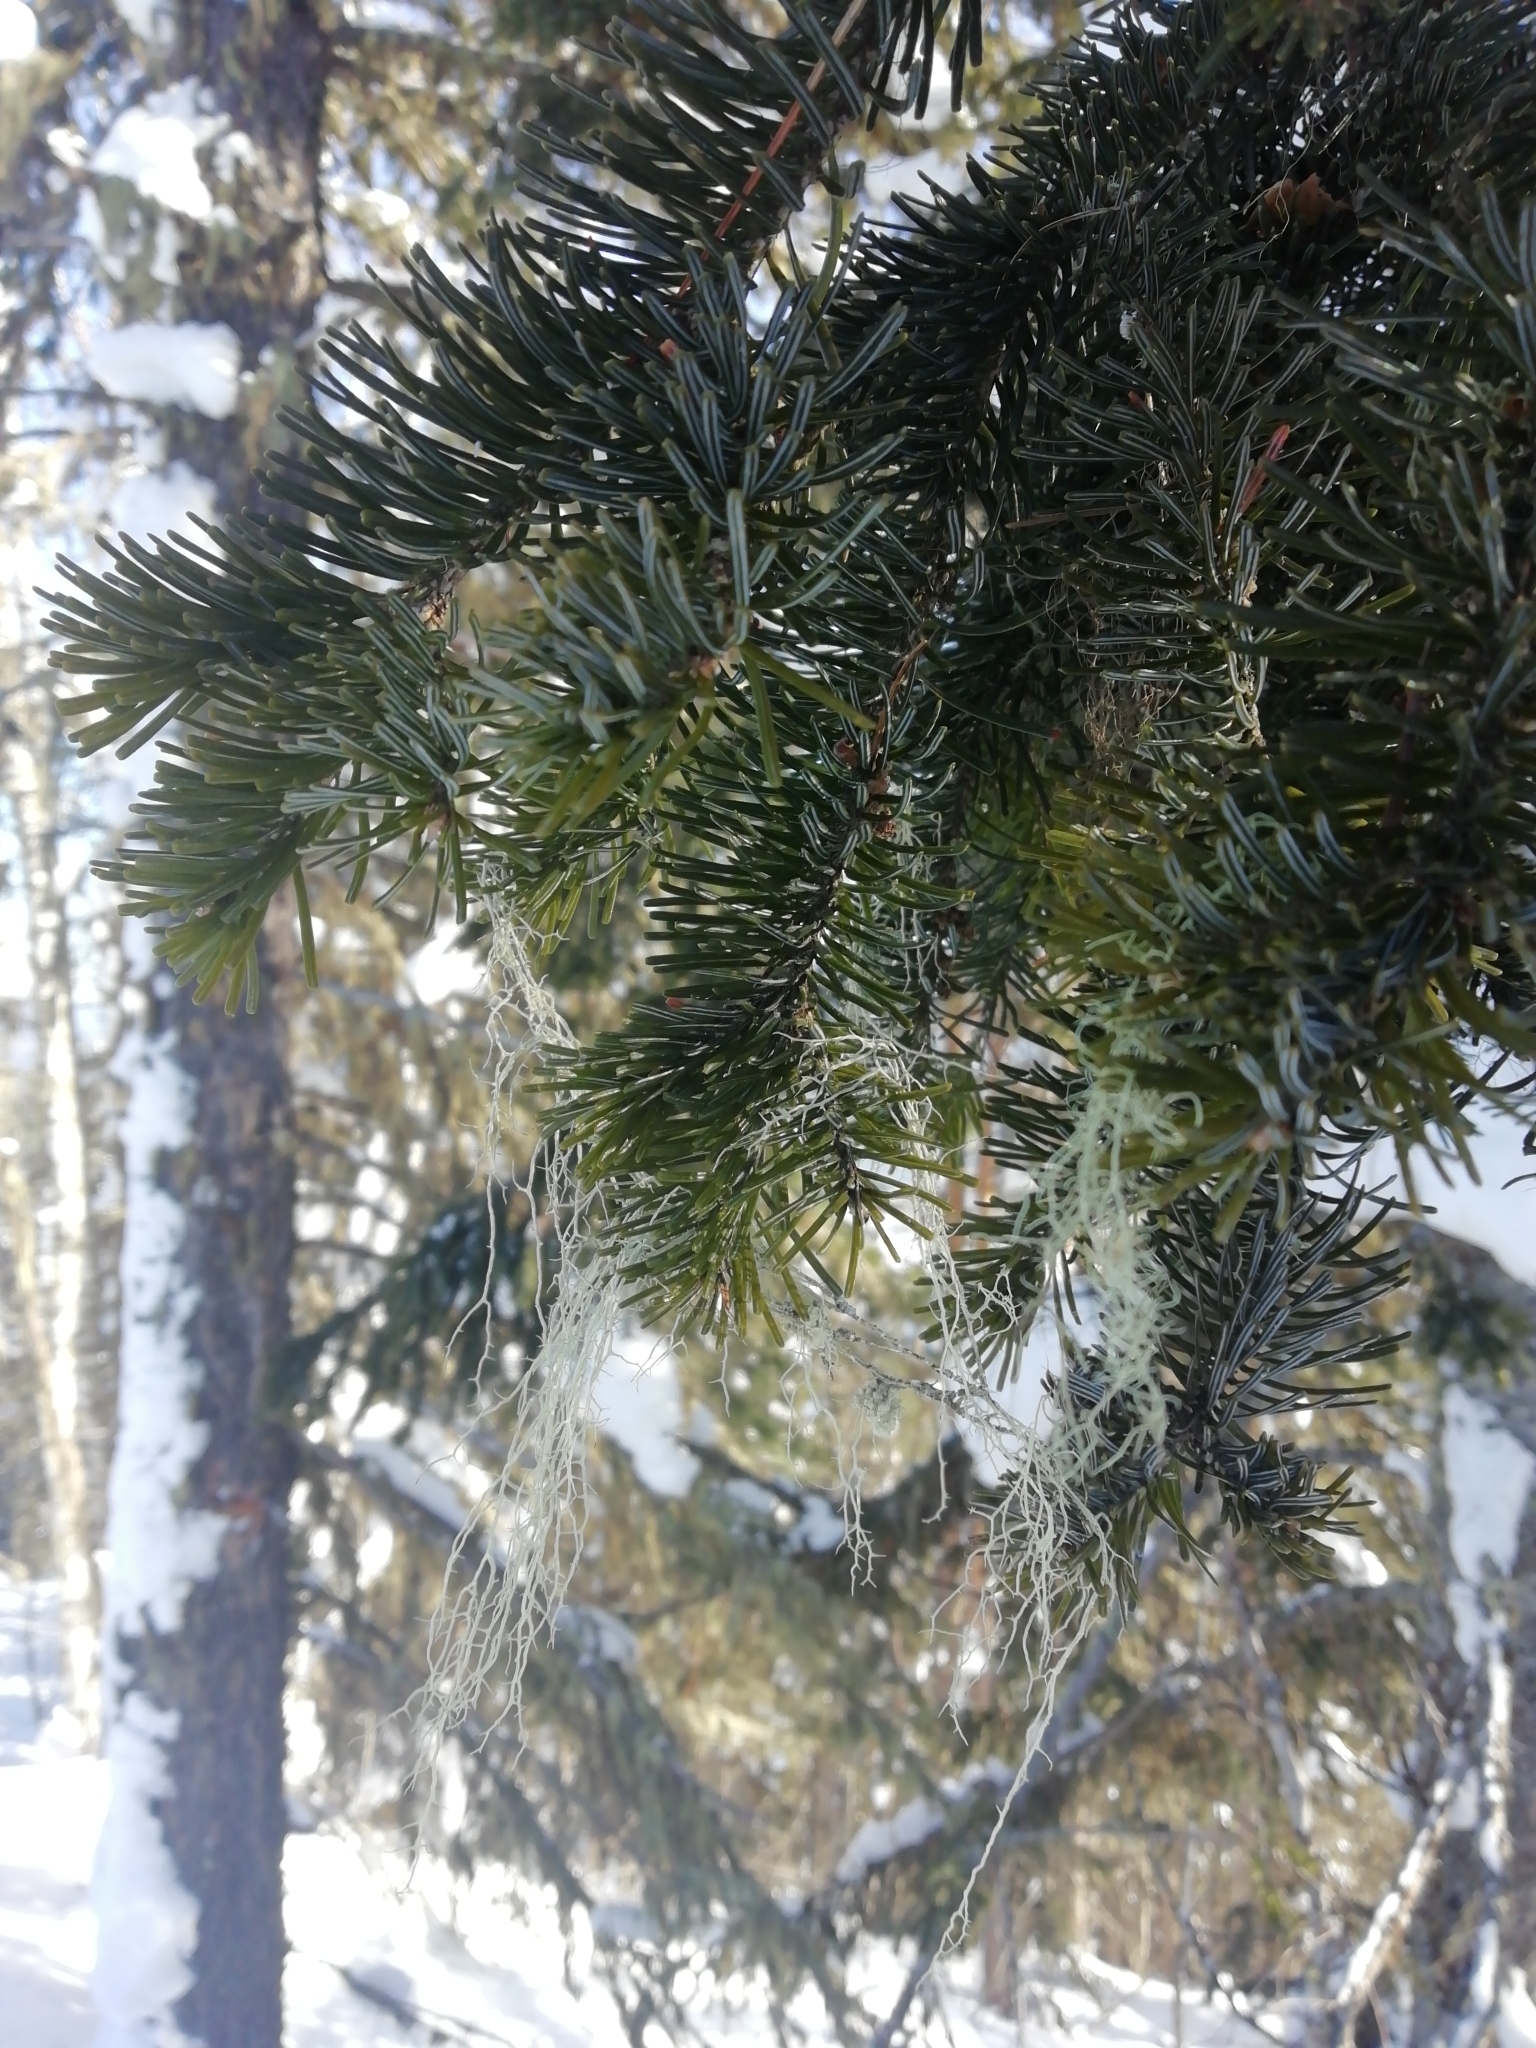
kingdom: Plantae
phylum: Tracheophyta
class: Pinopsida
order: Pinales
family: Pinaceae
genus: Abies
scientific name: Abies sibirica
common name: Siberian fir
